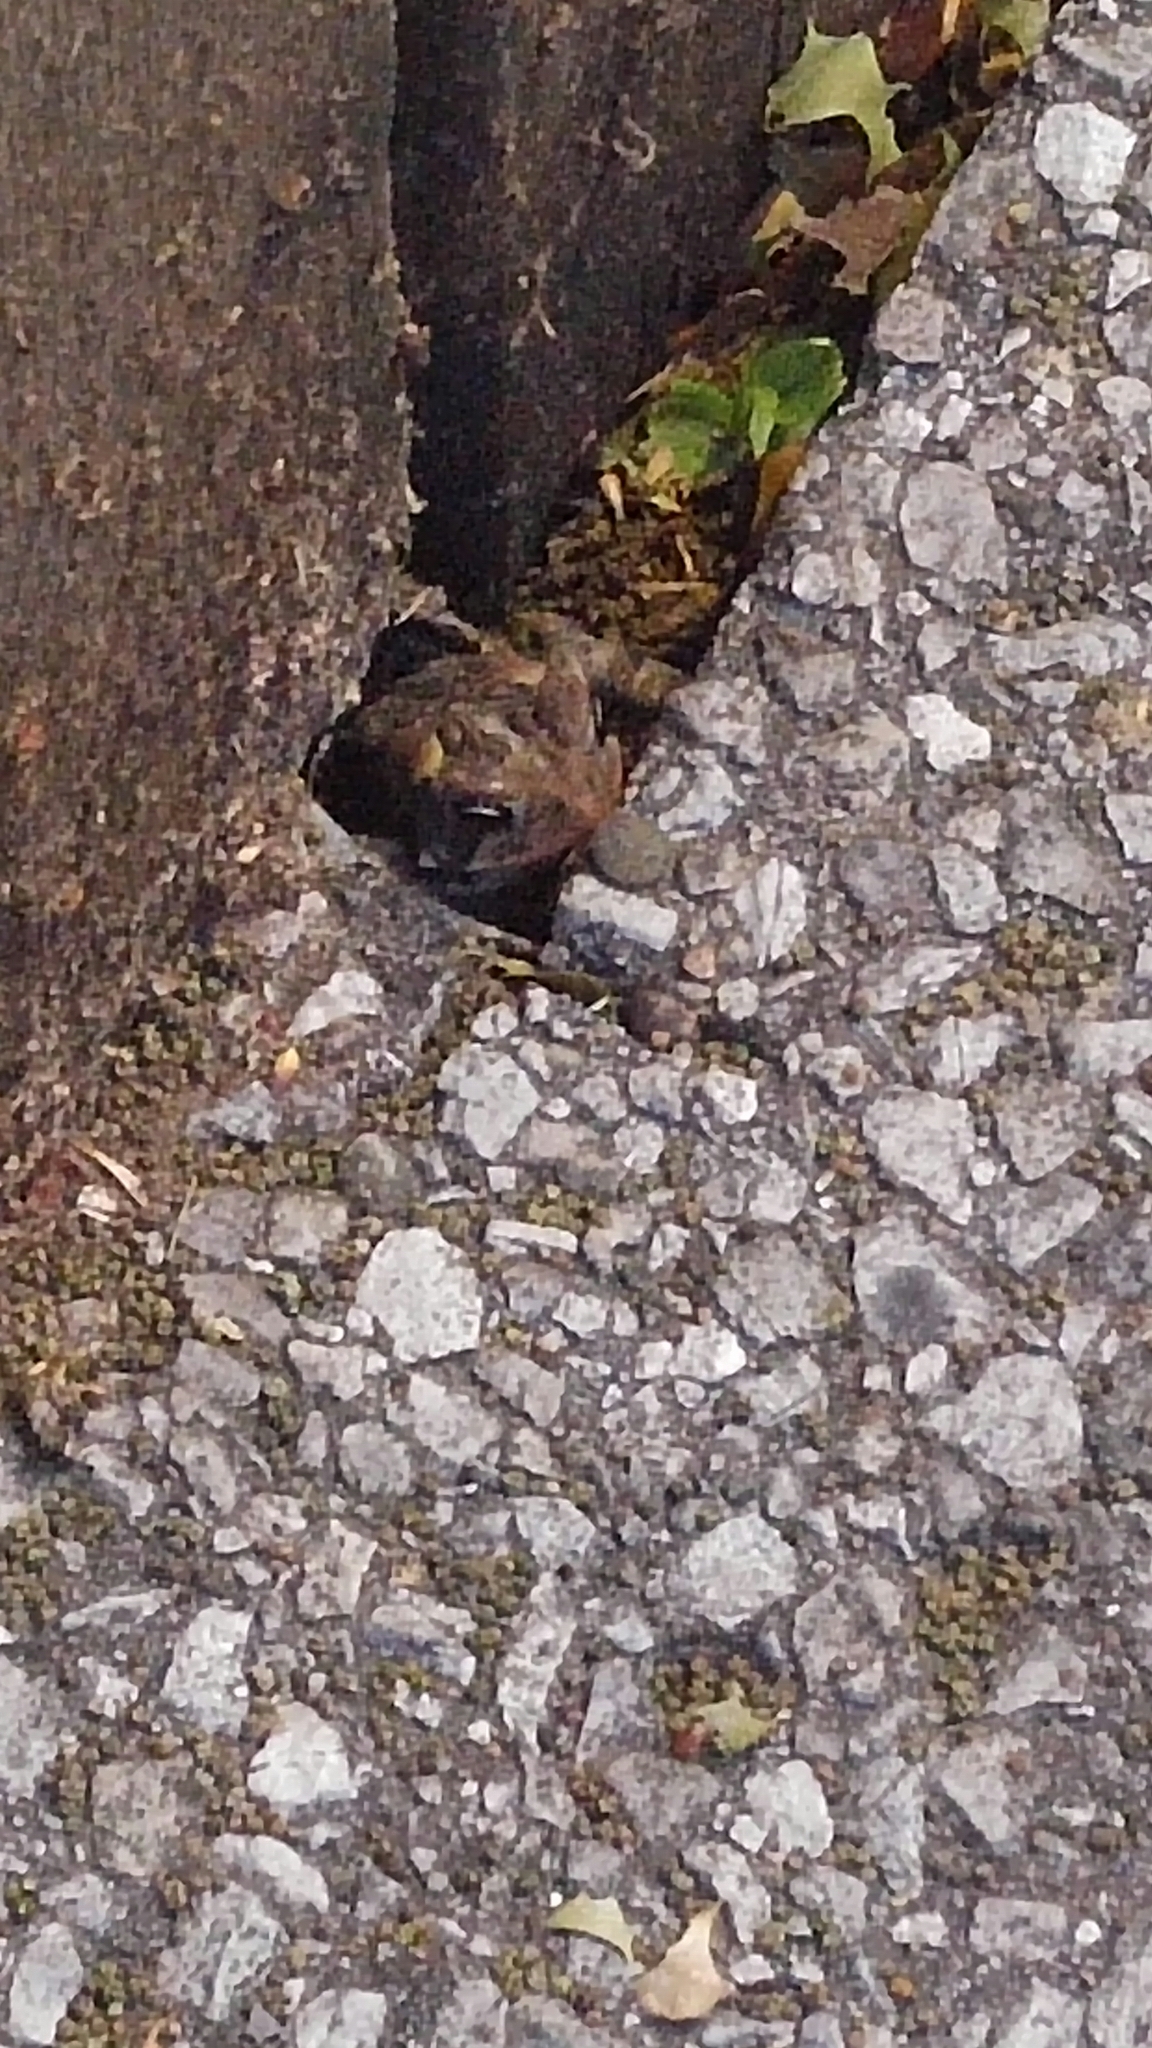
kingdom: Animalia
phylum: Chordata
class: Amphibia
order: Anura
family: Bufonidae
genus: Anaxyrus
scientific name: Anaxyrus americanus
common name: American toad
